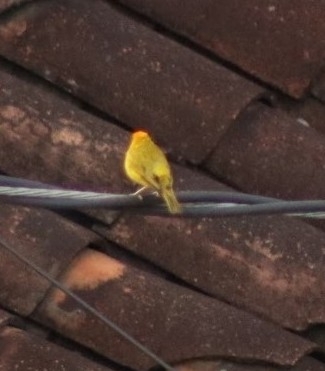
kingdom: Animalia
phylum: Chordata
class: Aves
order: Passeriformes
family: Thraupidae
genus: Sicalis
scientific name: Sicalis flaveola
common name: Saffron finch
